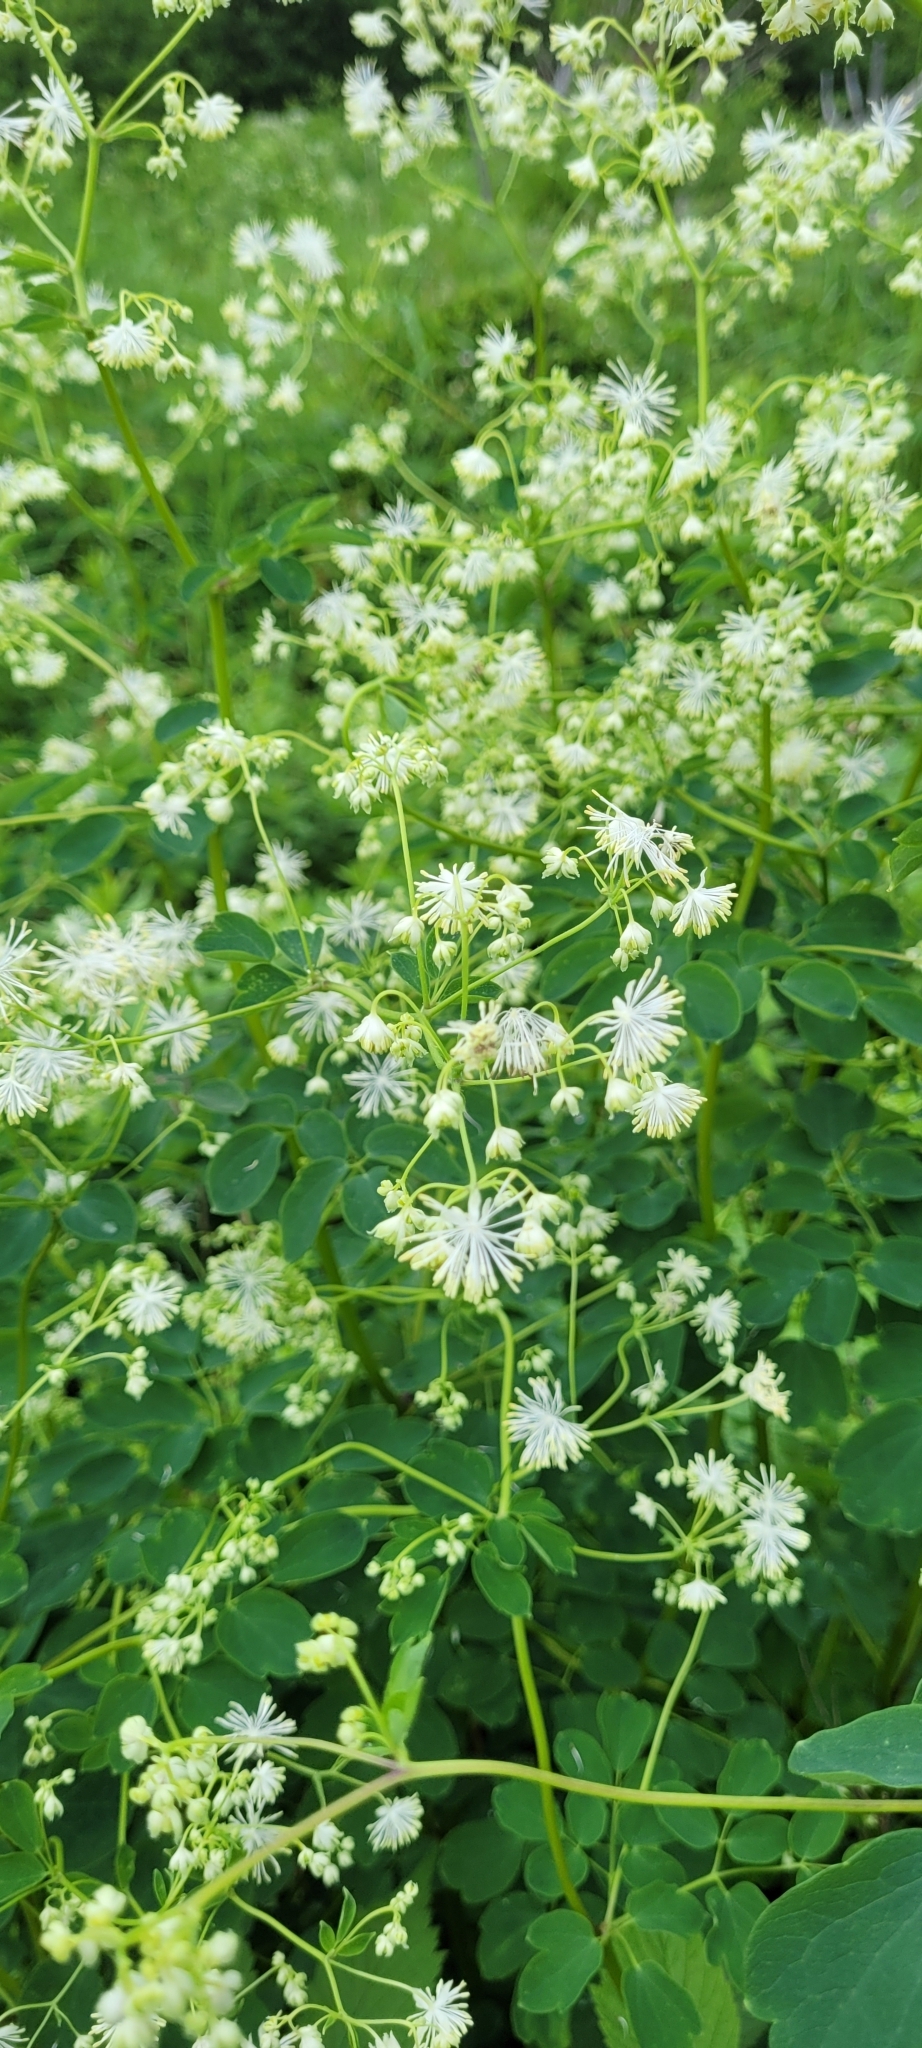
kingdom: Plantae
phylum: Tracheophyta
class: Magnoliopsida
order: Ranunculales
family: Ranunculaceae
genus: Thalictrum
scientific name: Thalictrum pubescens
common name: King-of-the-meadow
